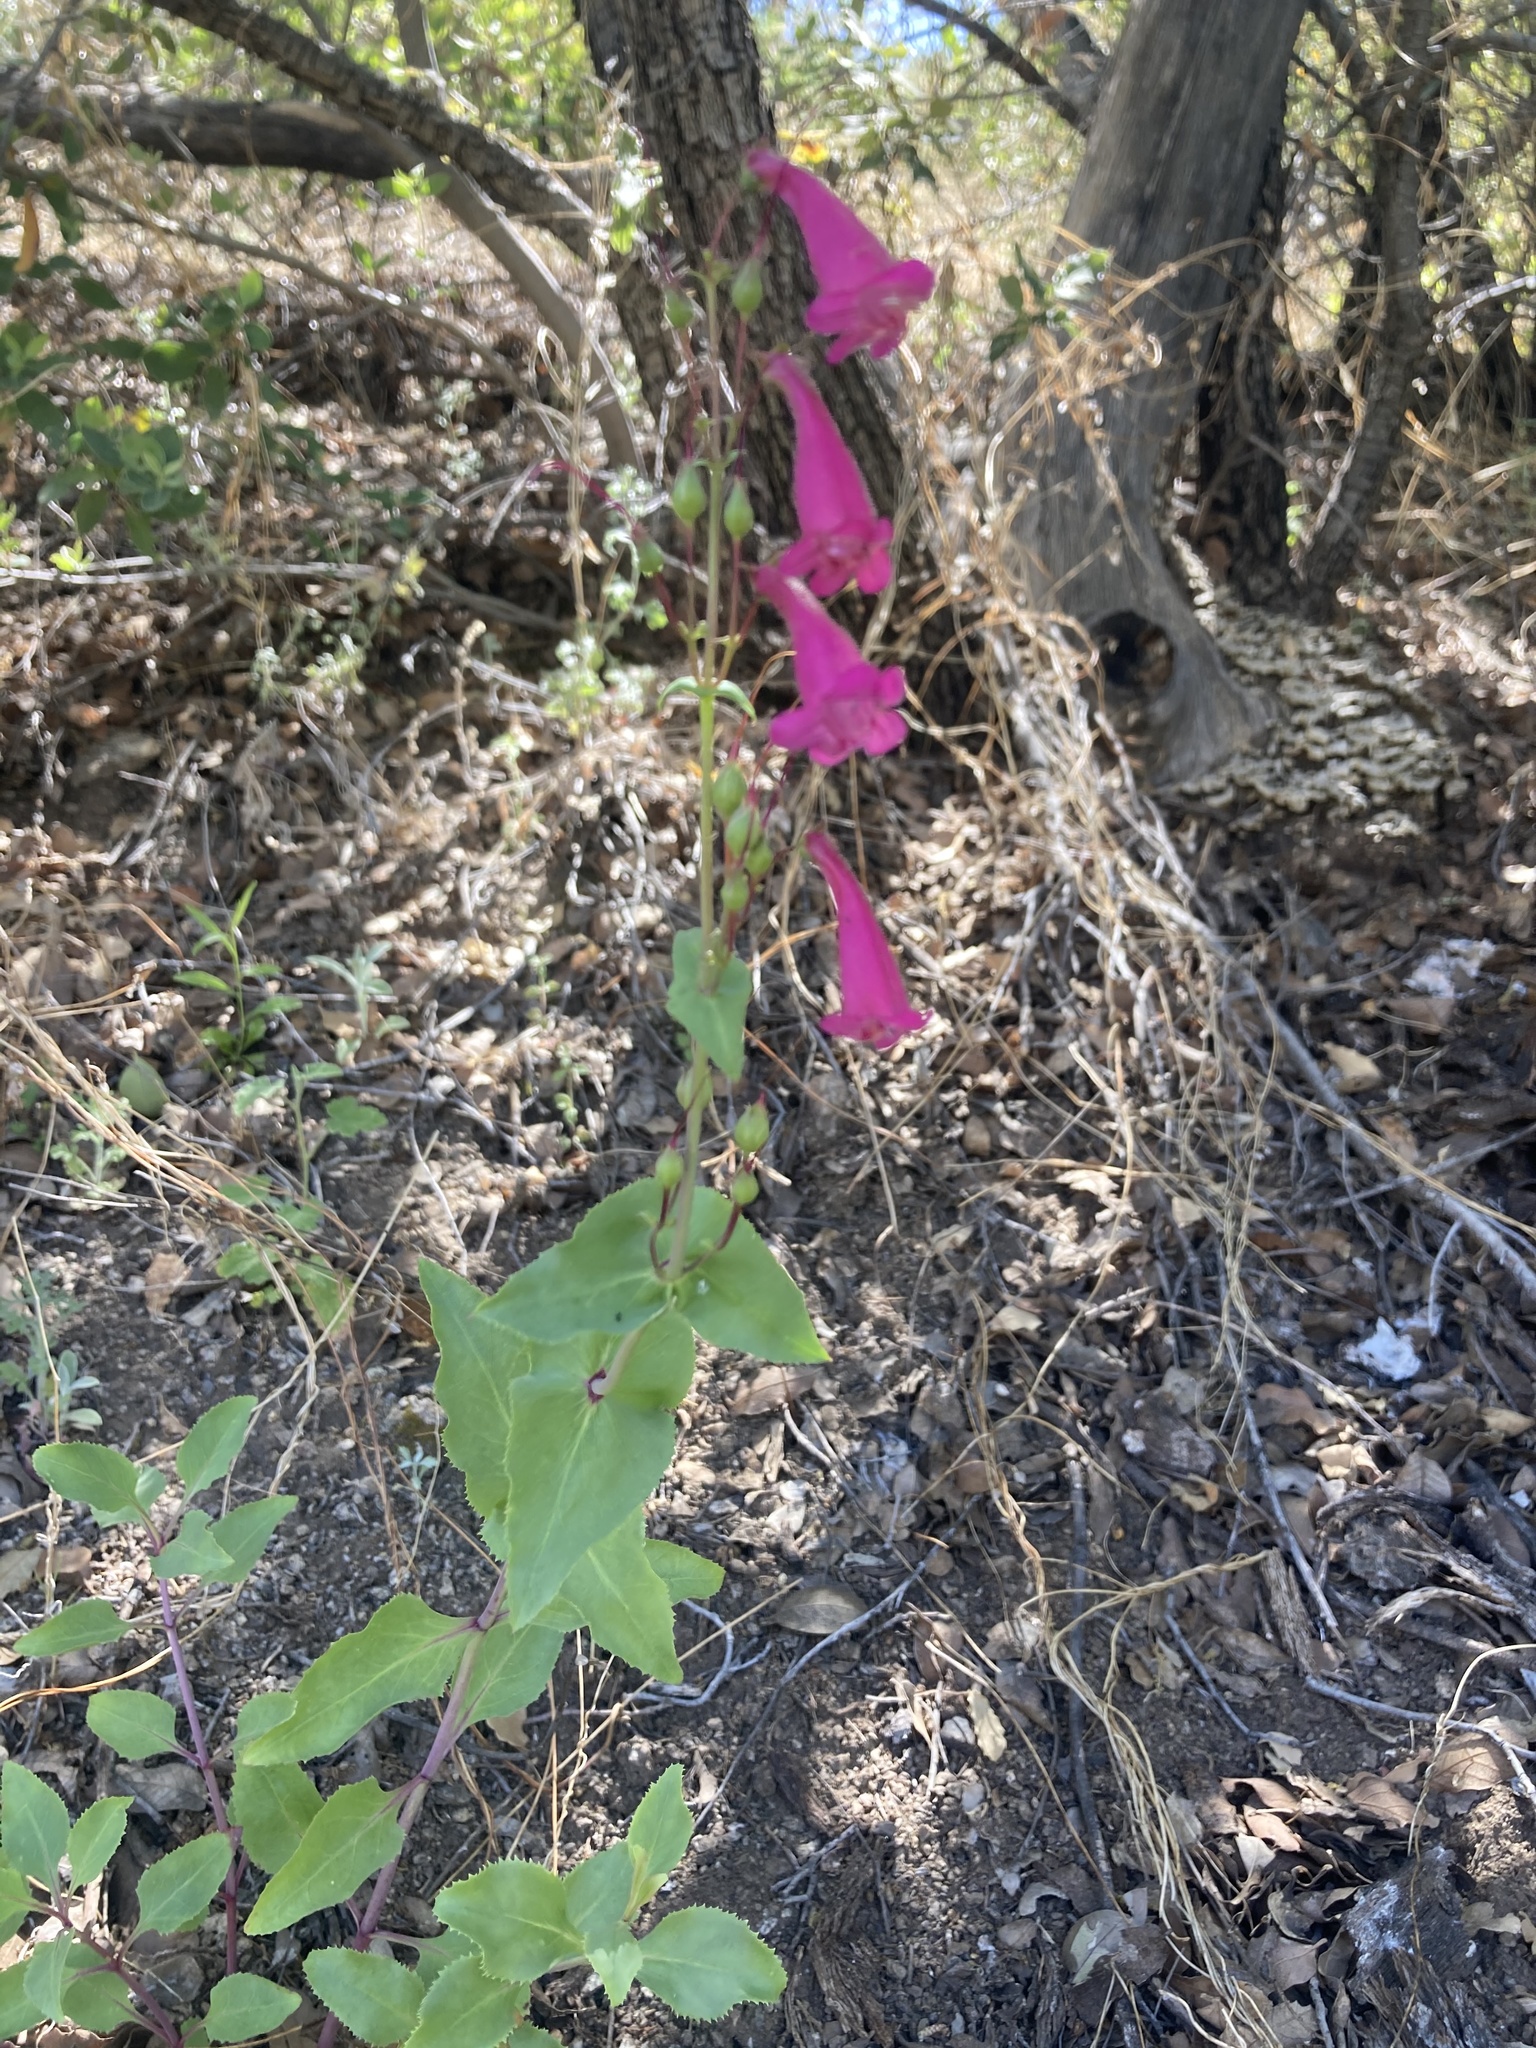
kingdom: Plantae
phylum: Tracheophyta
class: Magnoliopsida
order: Lamiales
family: Plantaginaceae
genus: Penstemon
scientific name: Penstemon pseudospectabilis
